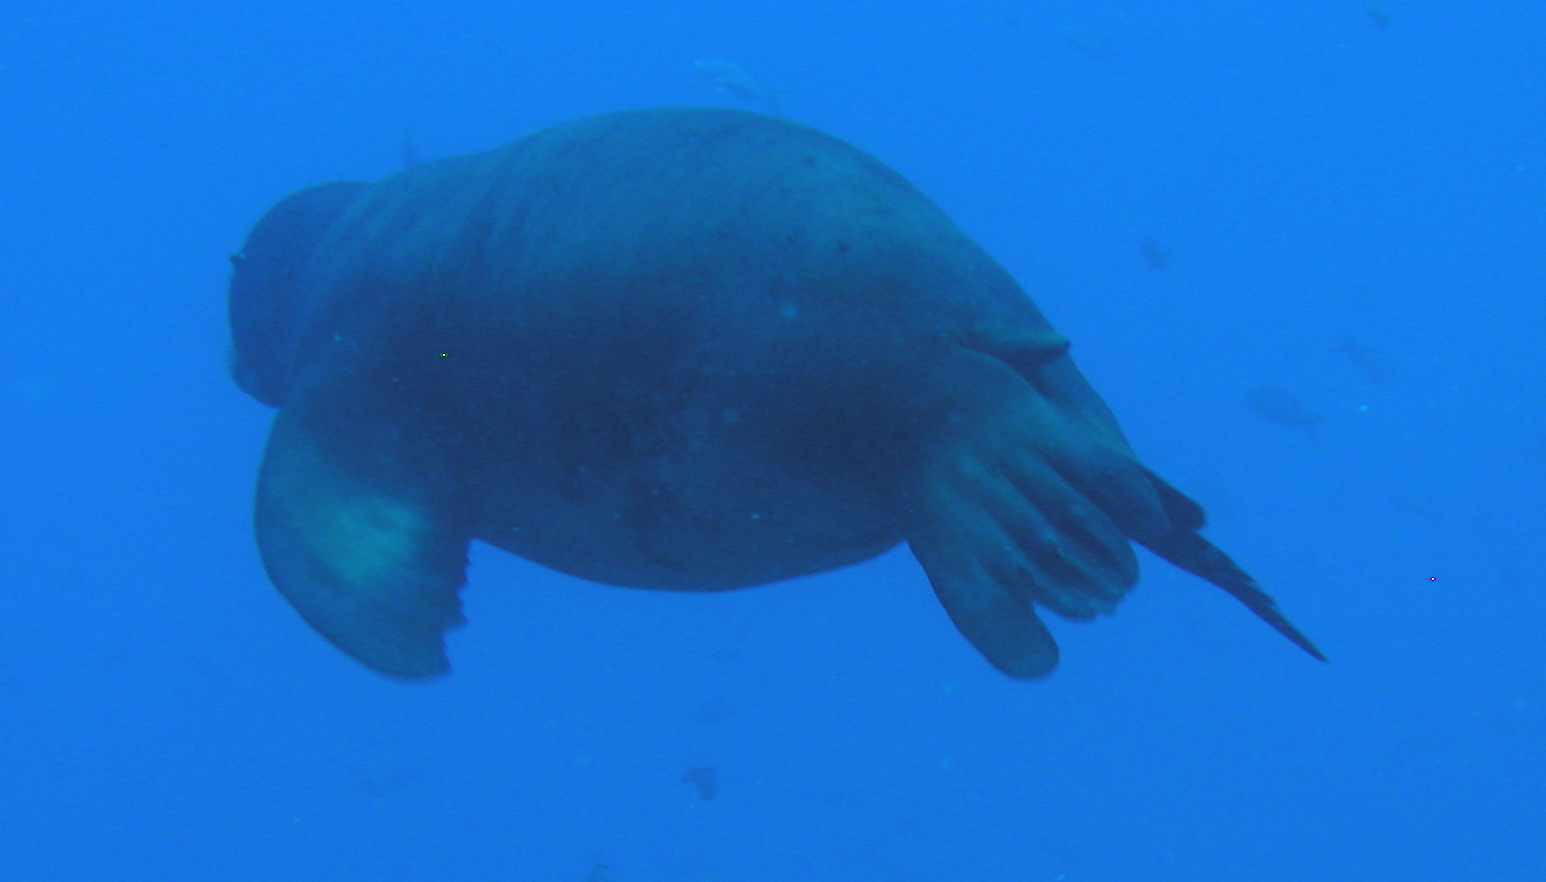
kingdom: Animalia
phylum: Chordata
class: Mammalia
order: Carnivora
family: Otariidae
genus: Zalophus
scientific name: Zalophus californianus
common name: California sea lion
